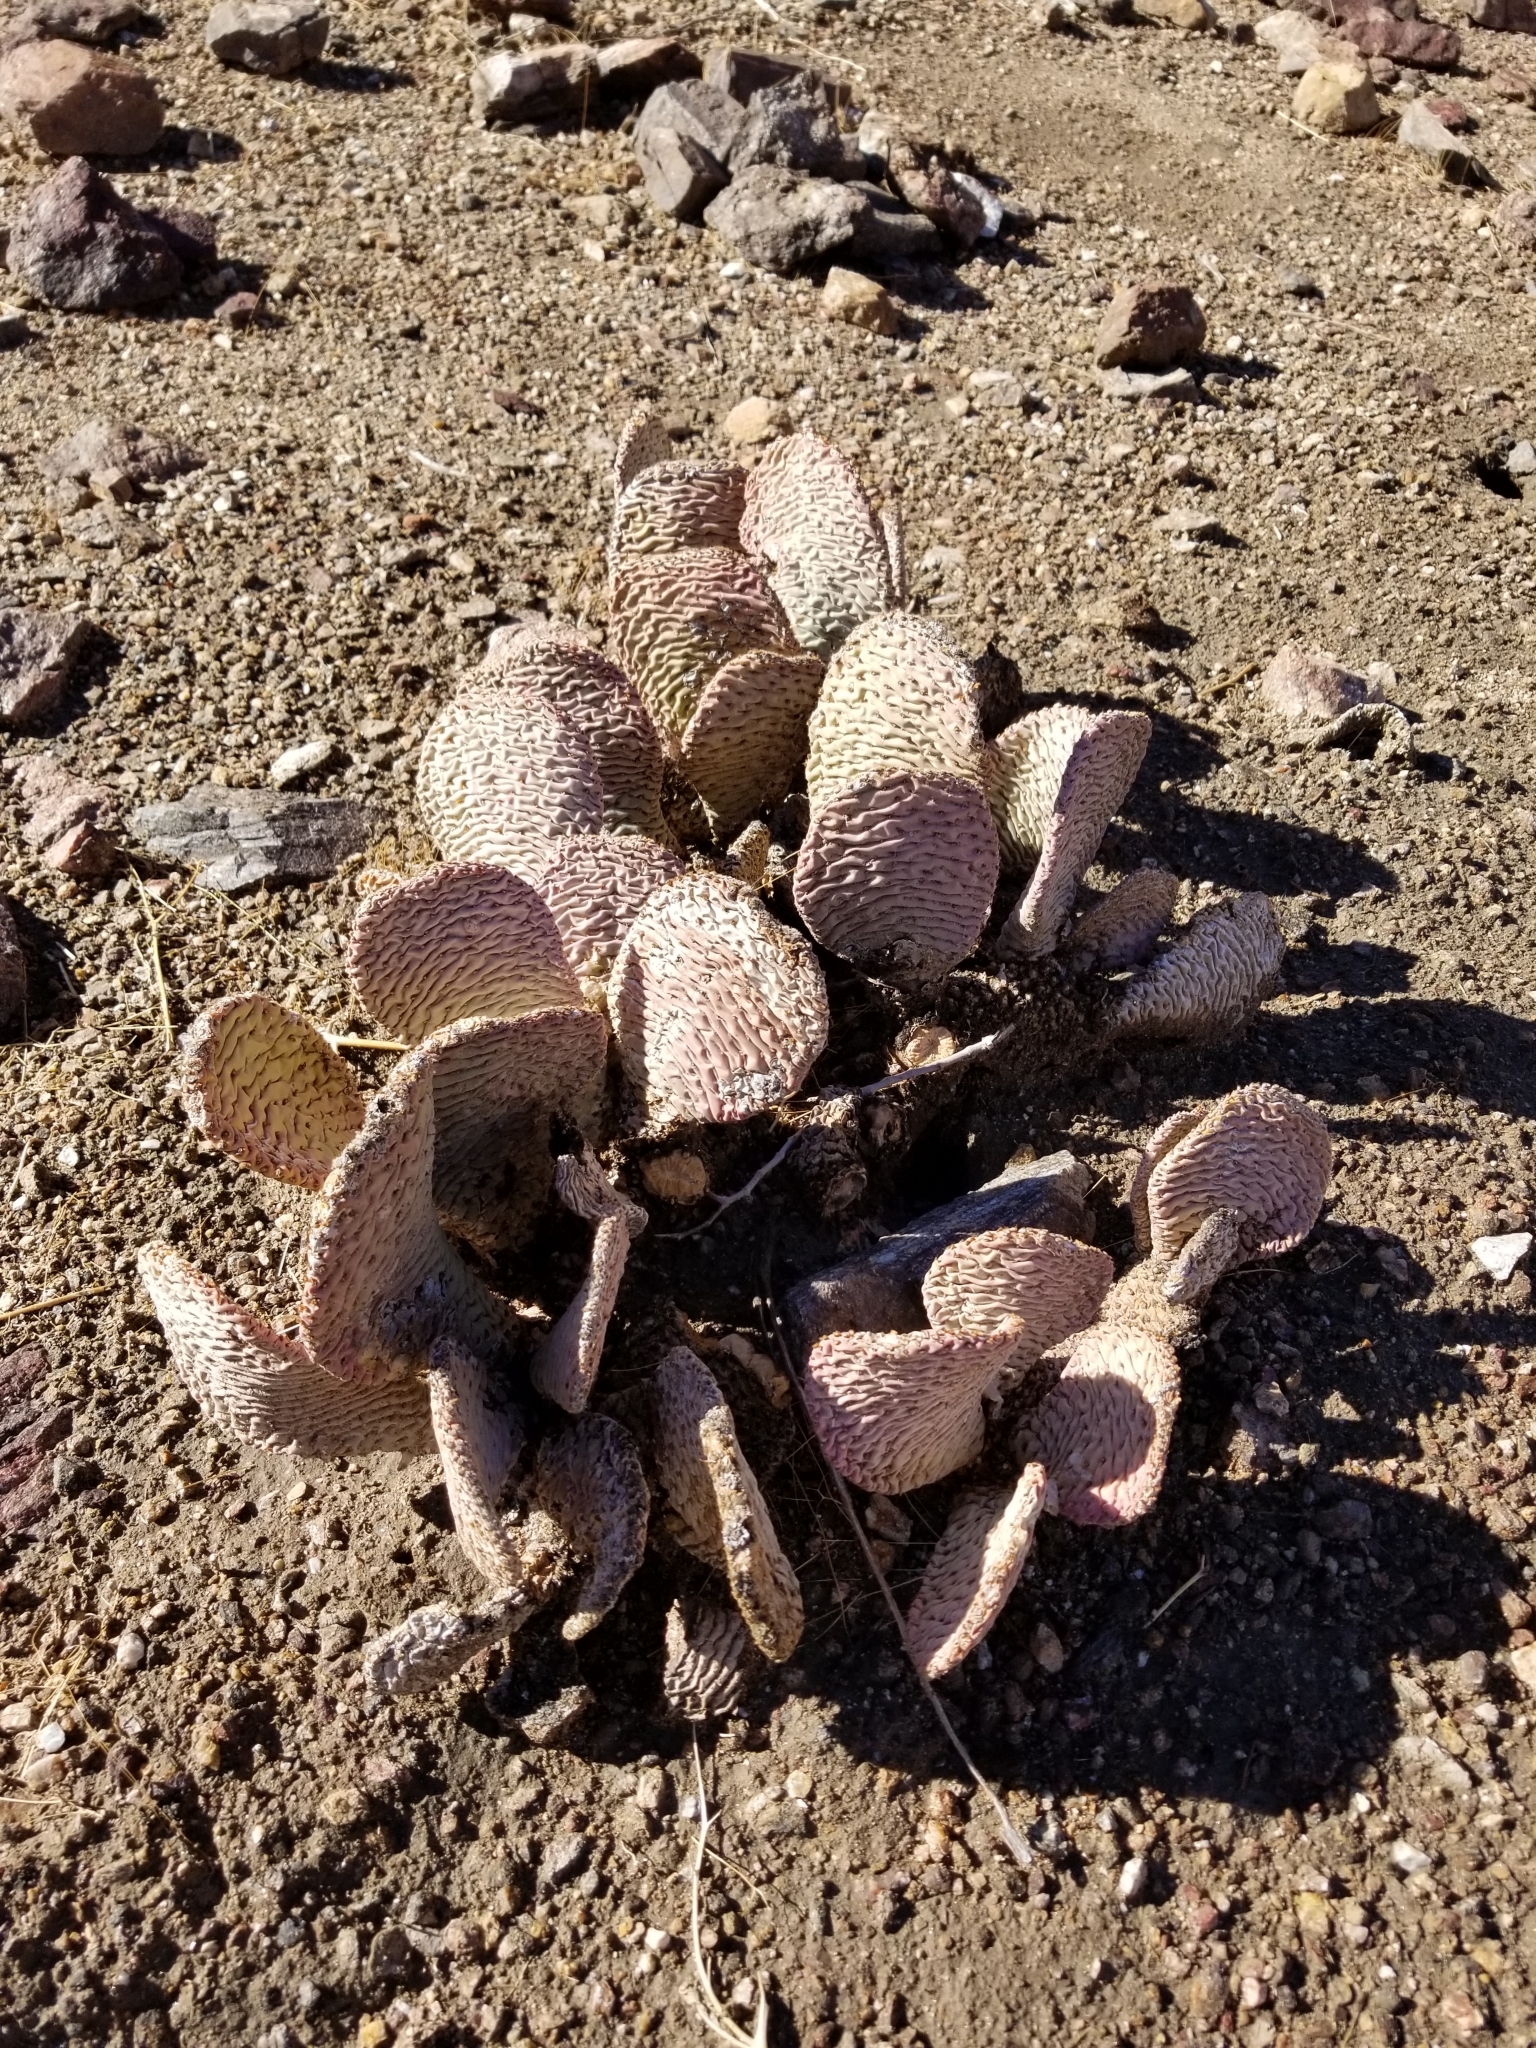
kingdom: Plantae
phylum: Tracheophyta
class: Magnoliopsida
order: Caryophyllales
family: Cactaceae
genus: Opuntia
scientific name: Opuntia basilaris
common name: Beavertail prickly-pear
